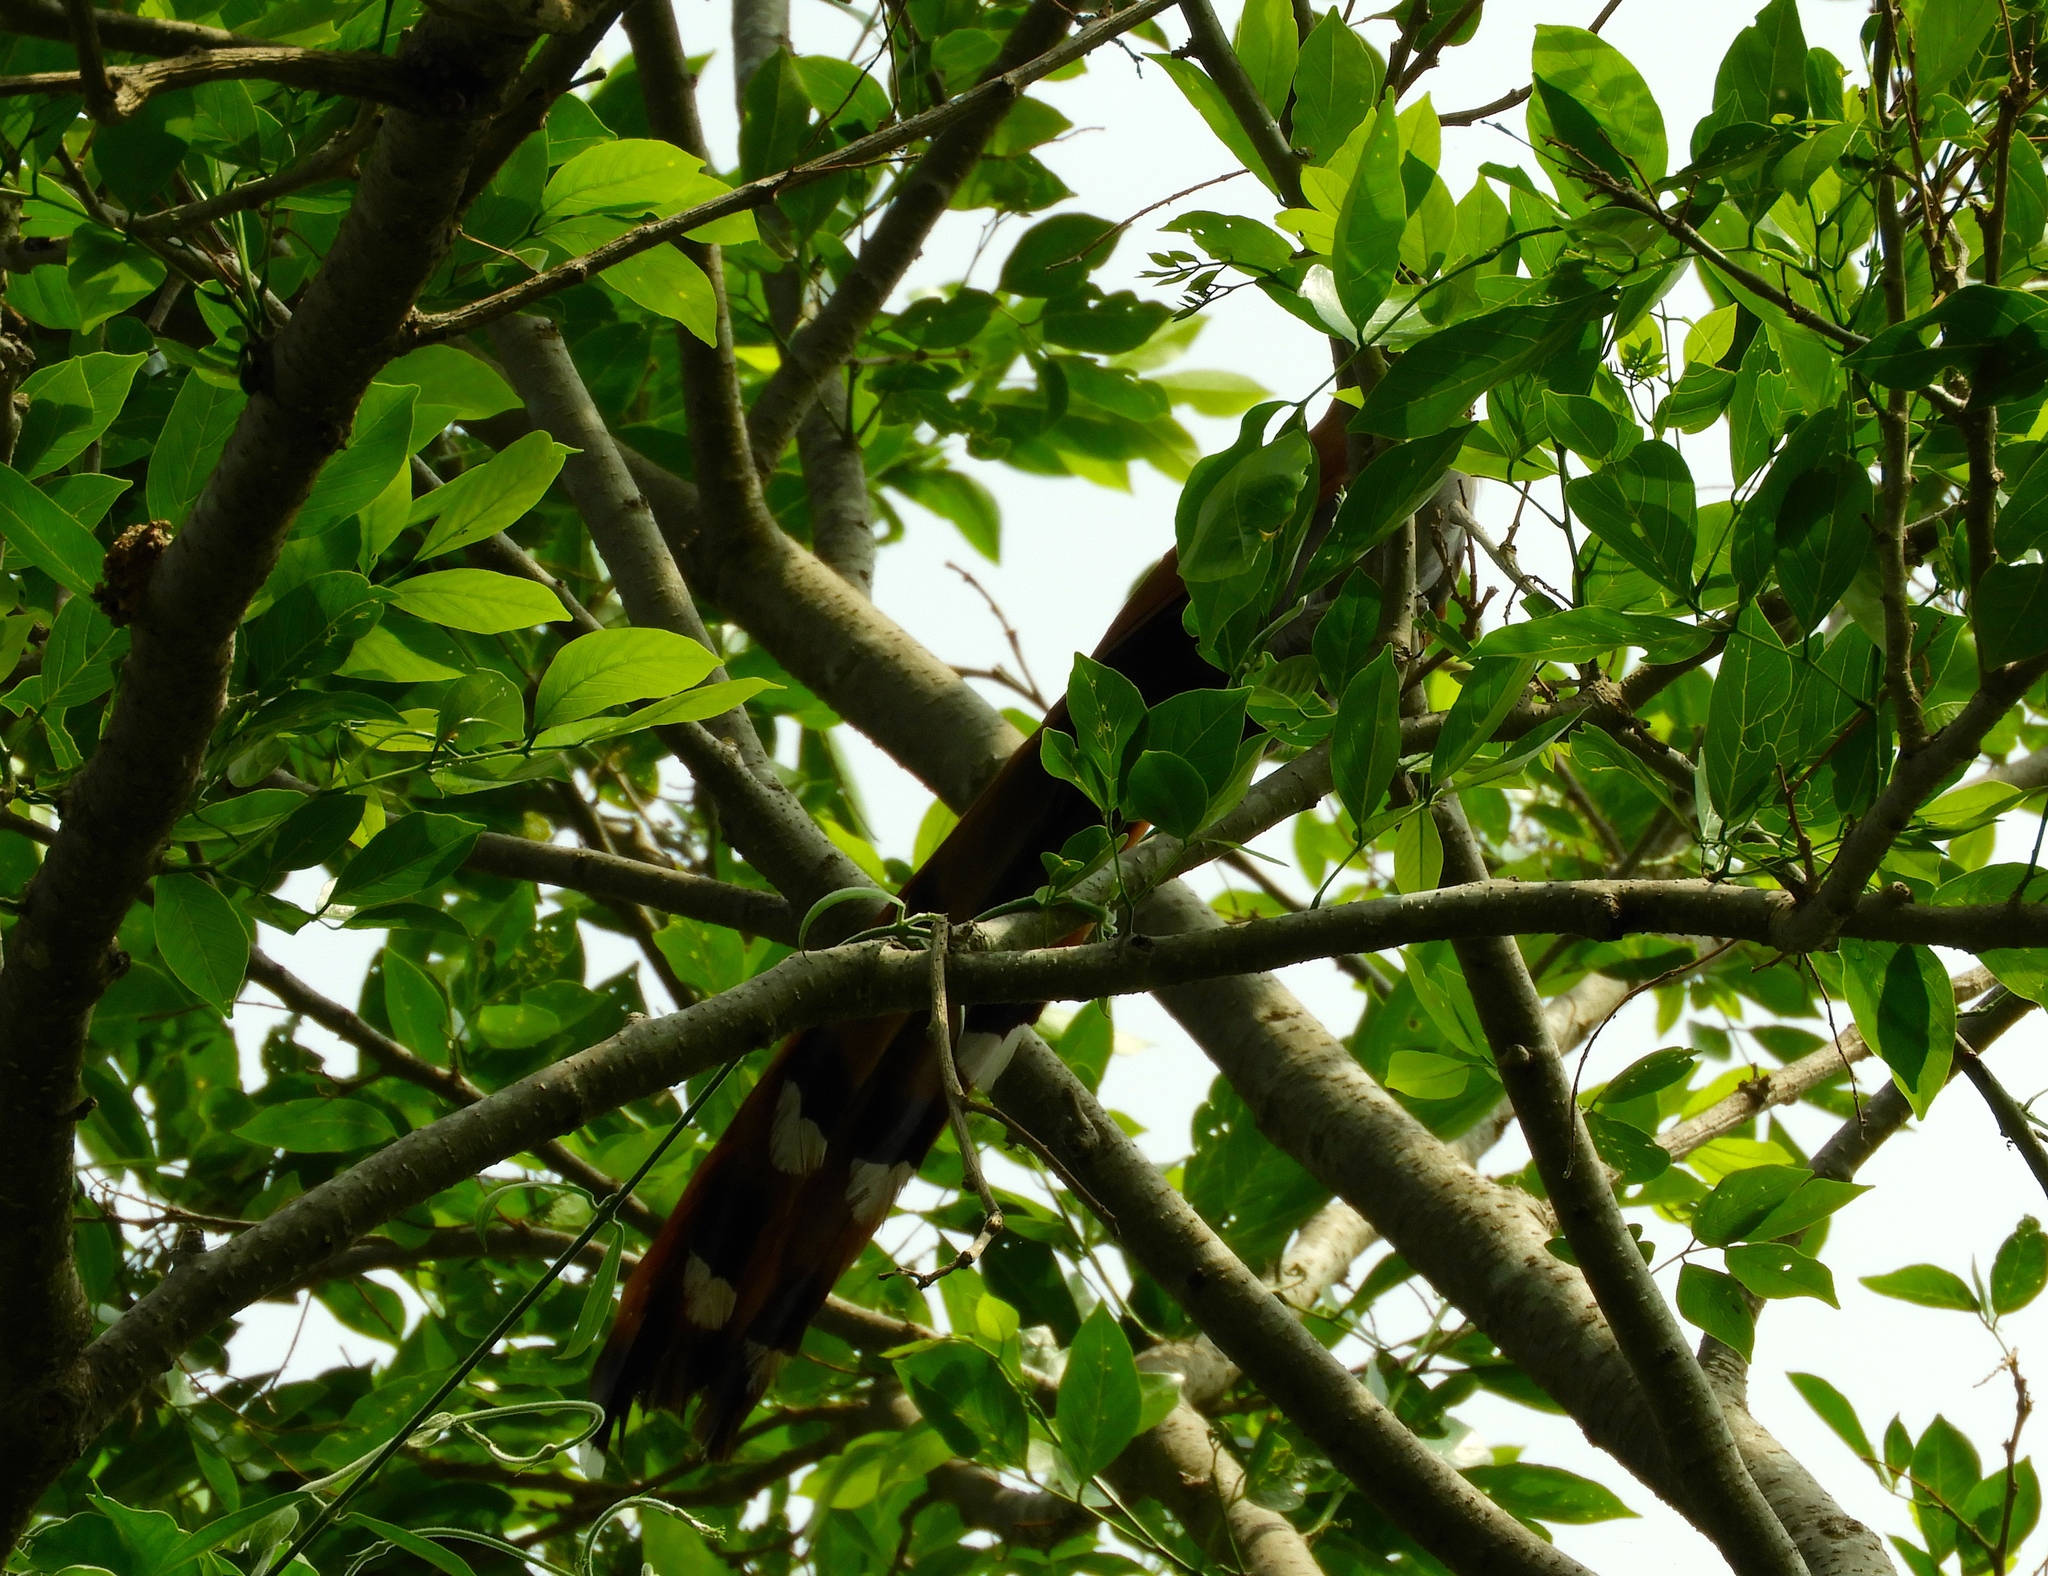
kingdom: Animalia
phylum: Chordata
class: Aves
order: Cuculiformes
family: Cuculidae
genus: Piaya
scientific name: Piaya cayana
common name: Squirrel cuckoo
